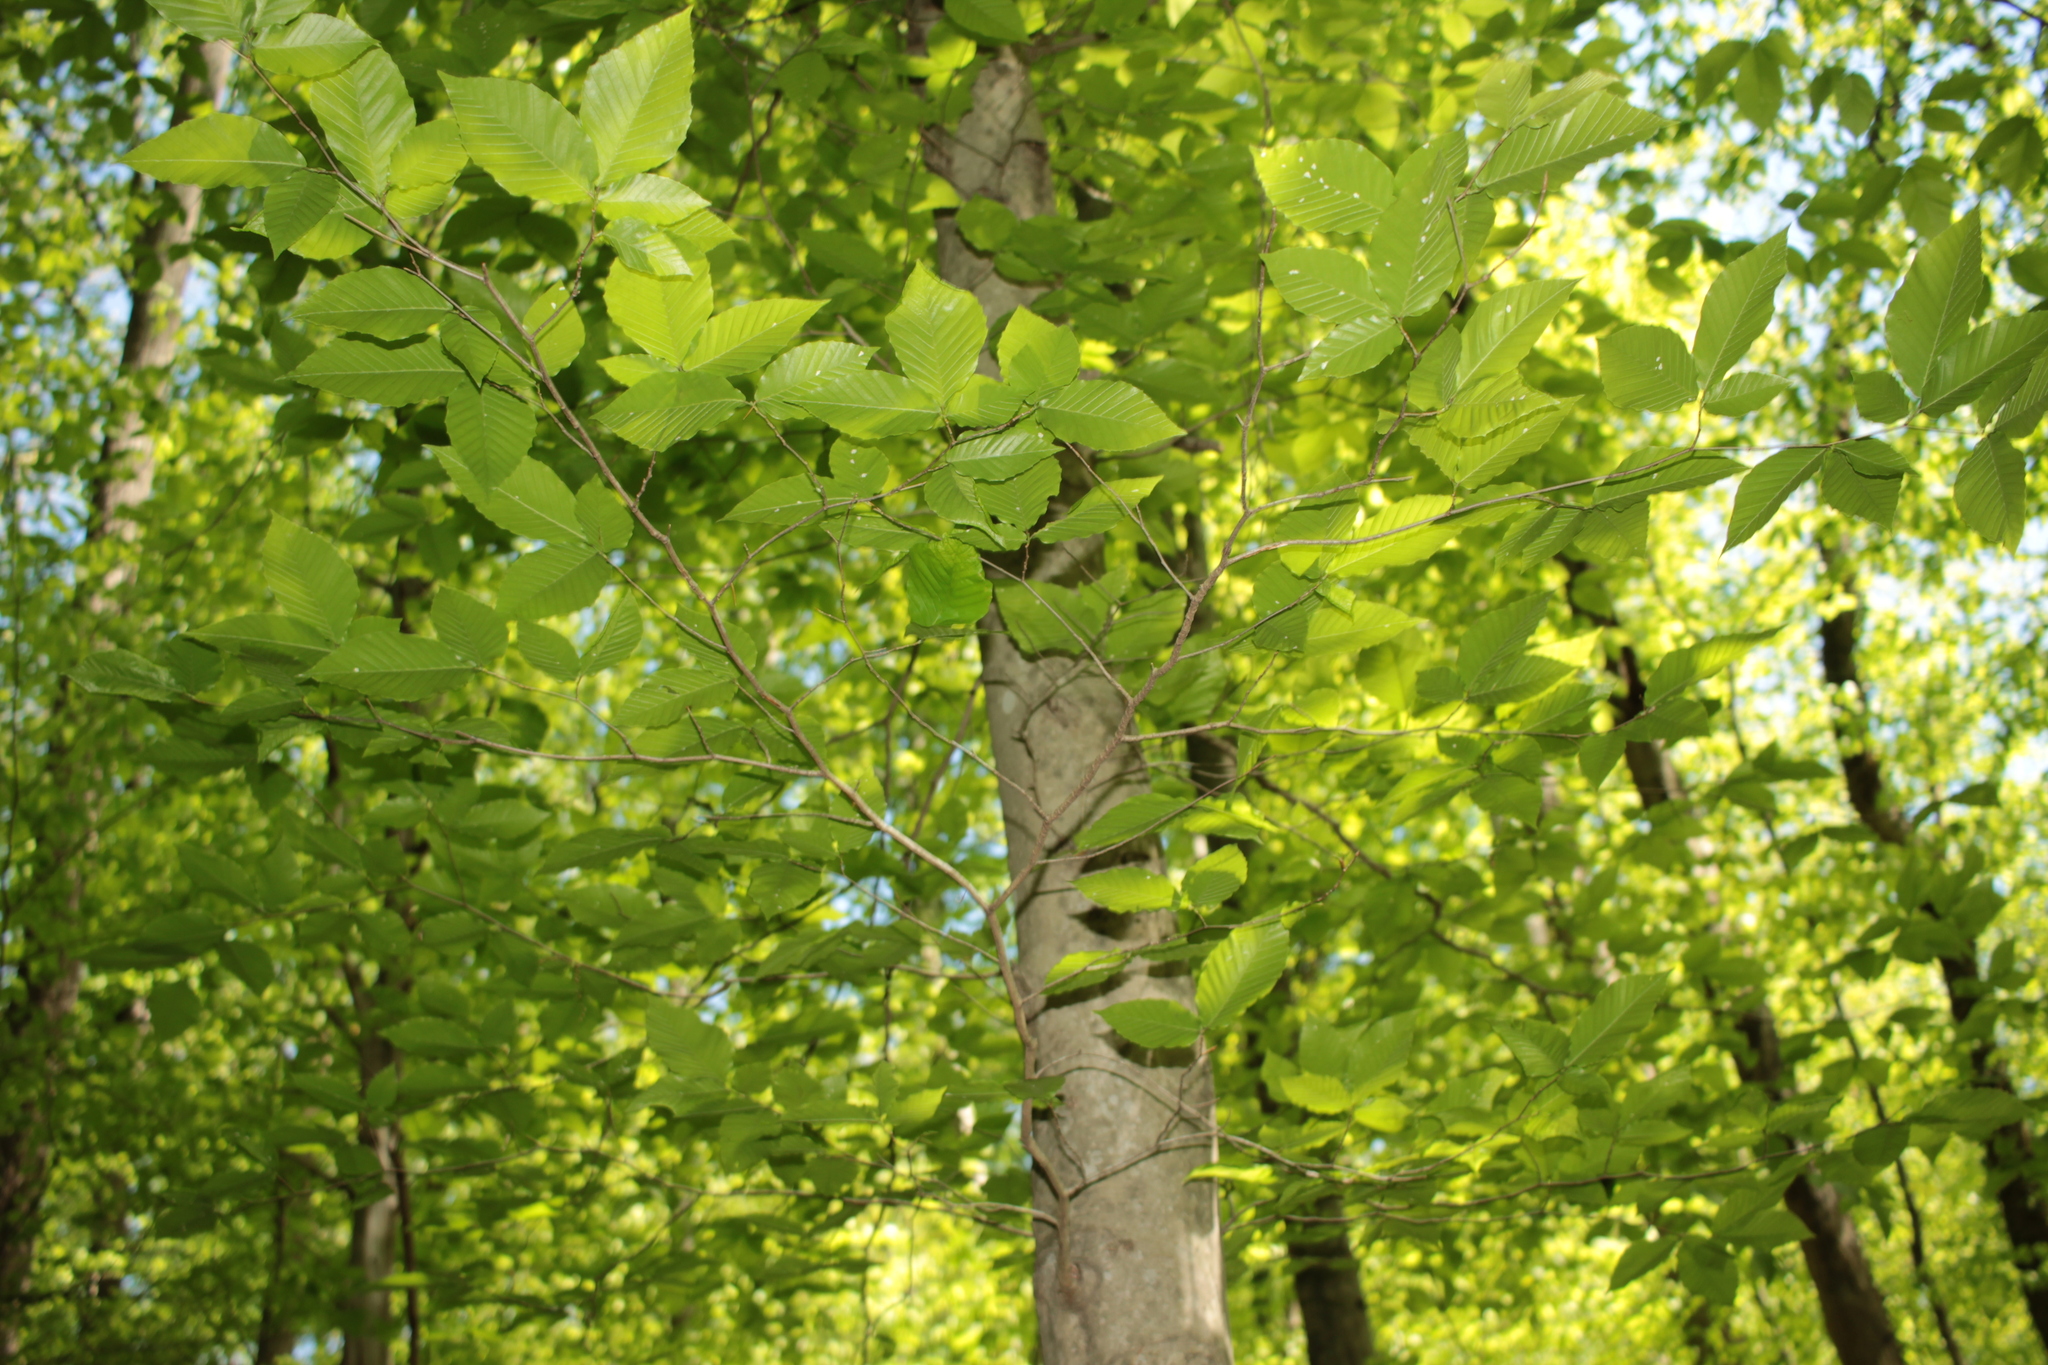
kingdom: Plantae
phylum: Tracheophyta
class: Magnoliopsida
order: Fagales
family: Fagaceae
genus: Fagus
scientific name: Fagus grandifolia
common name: American beech
